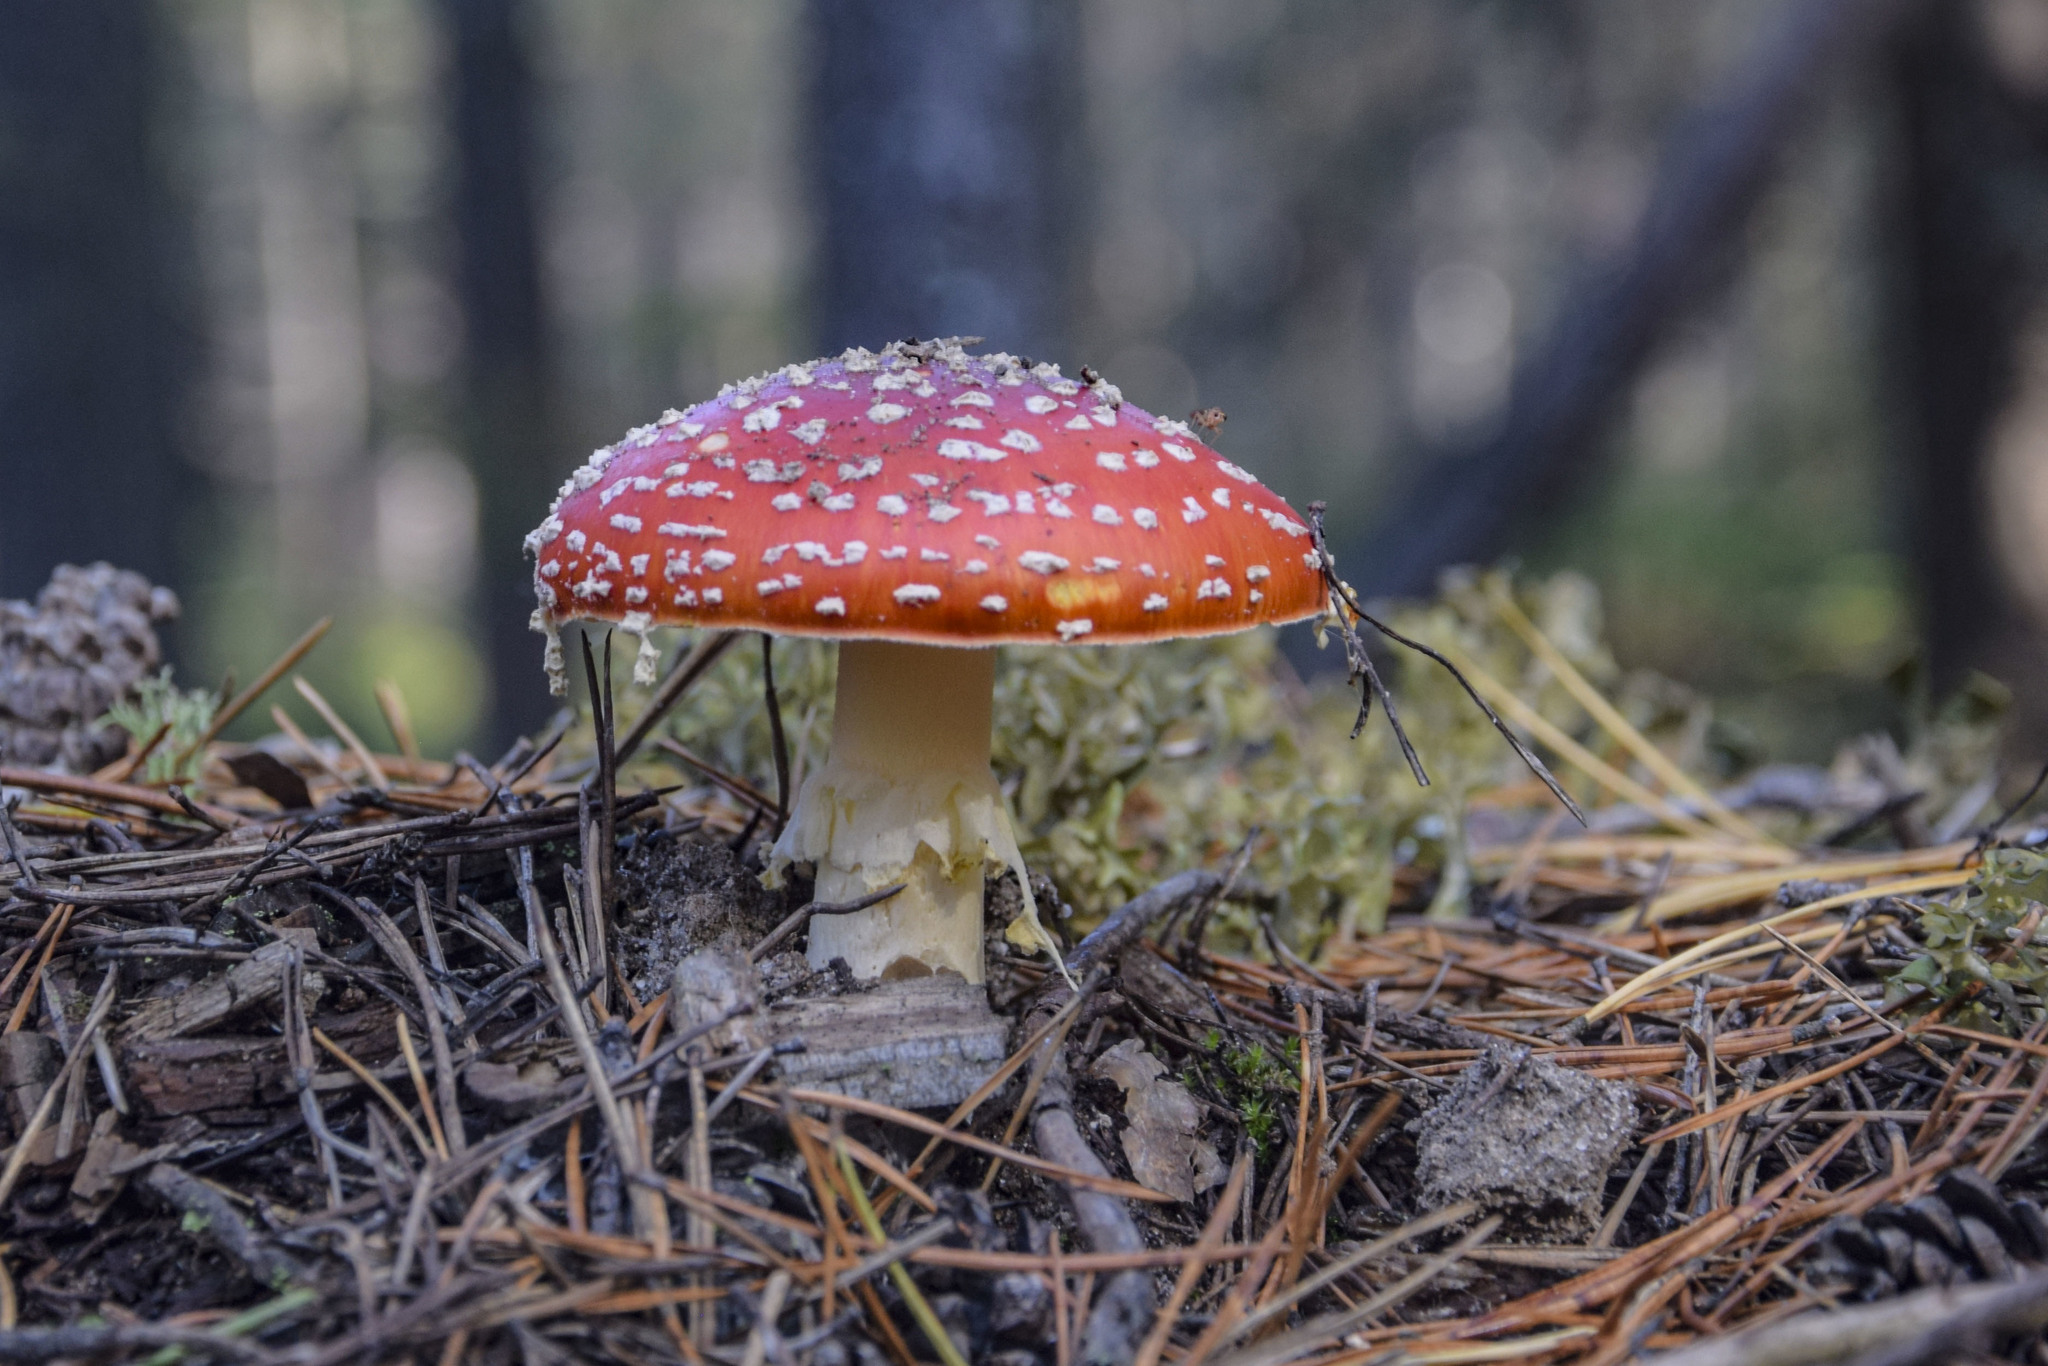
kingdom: Fungi
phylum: Basidiomycota
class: Agaricomycetes
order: Agaricales
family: Amanitaceae
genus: Amanita
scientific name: Amanita muscaria
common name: Fly agaric
